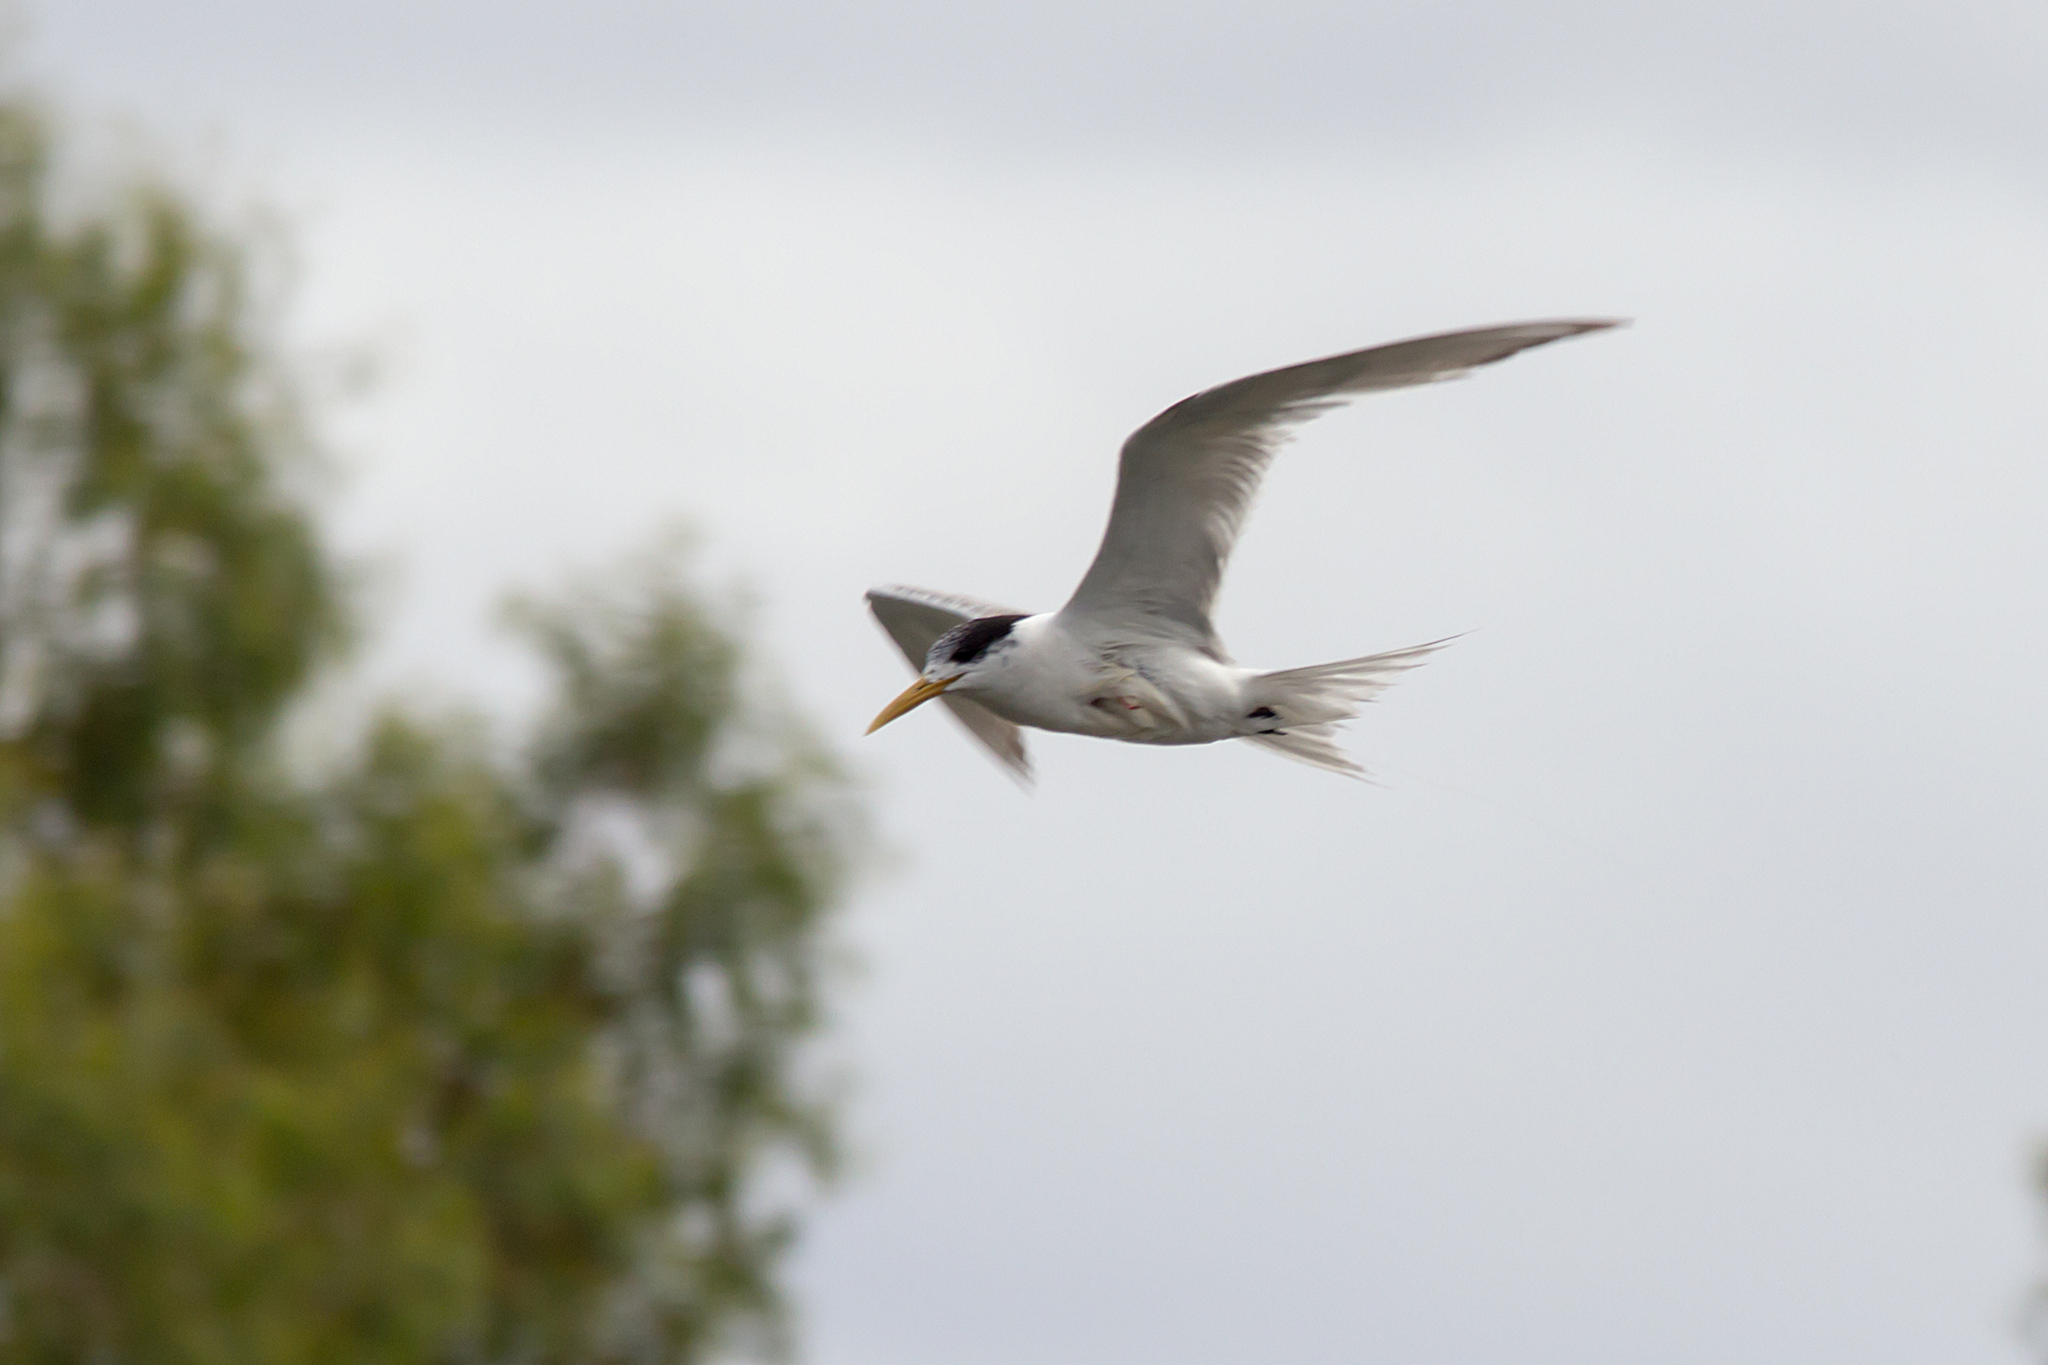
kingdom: Animalia
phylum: Chordata
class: Aves
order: Charadriiformes
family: Laridae
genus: Thalasseus
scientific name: Thalasseus bergii
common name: Greater crested tern
